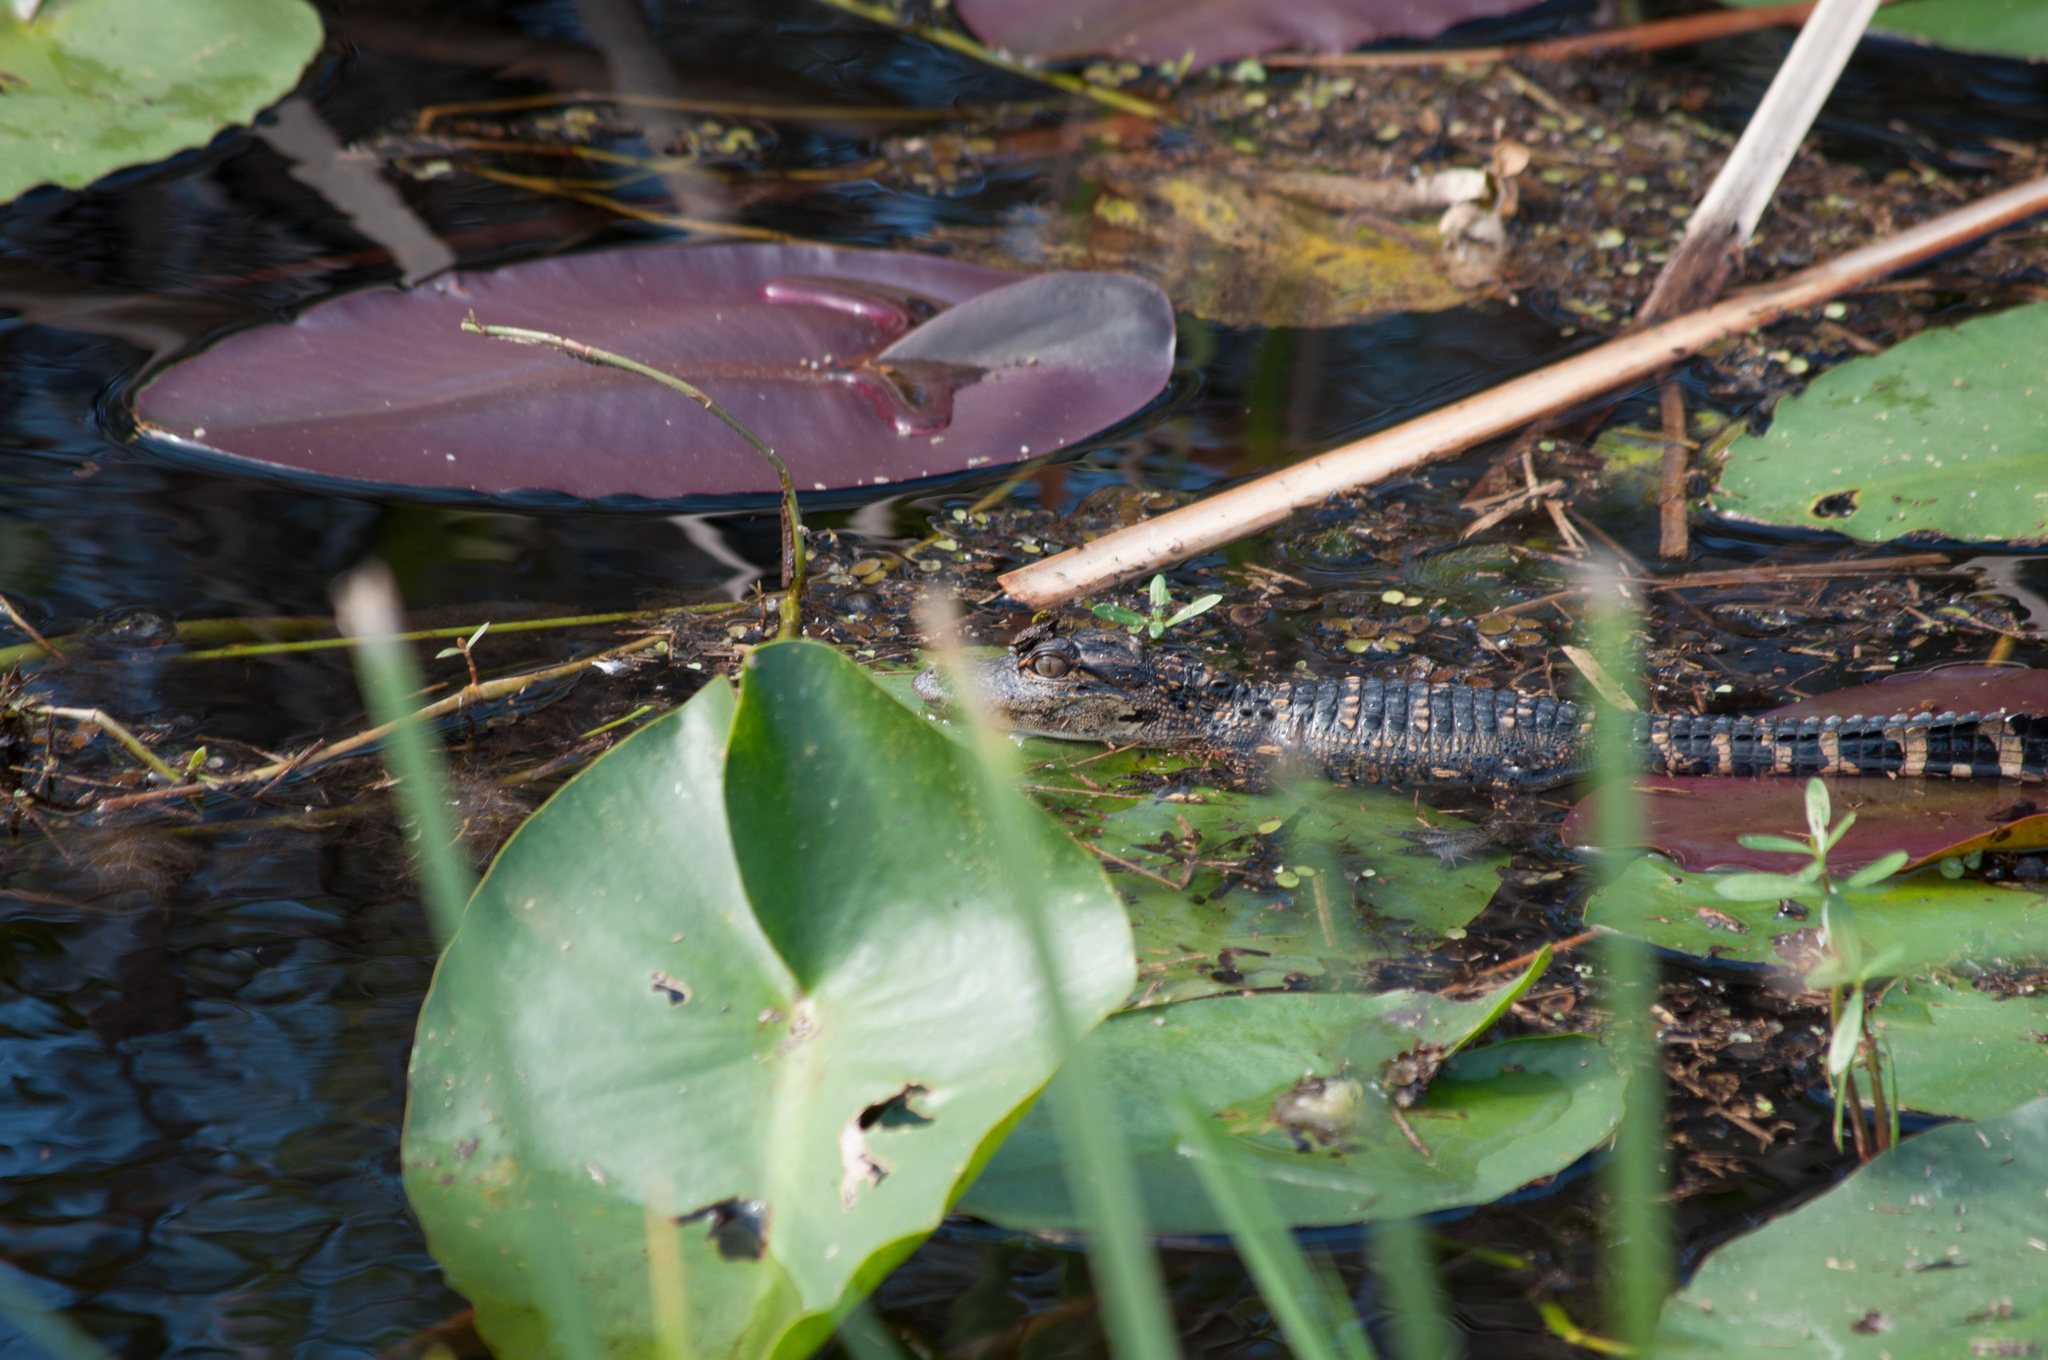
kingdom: Animalia
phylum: Chordata
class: Crocodylia
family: Alligatoridae
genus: Alligator
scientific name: Alligator mississippiensis
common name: American alligator
